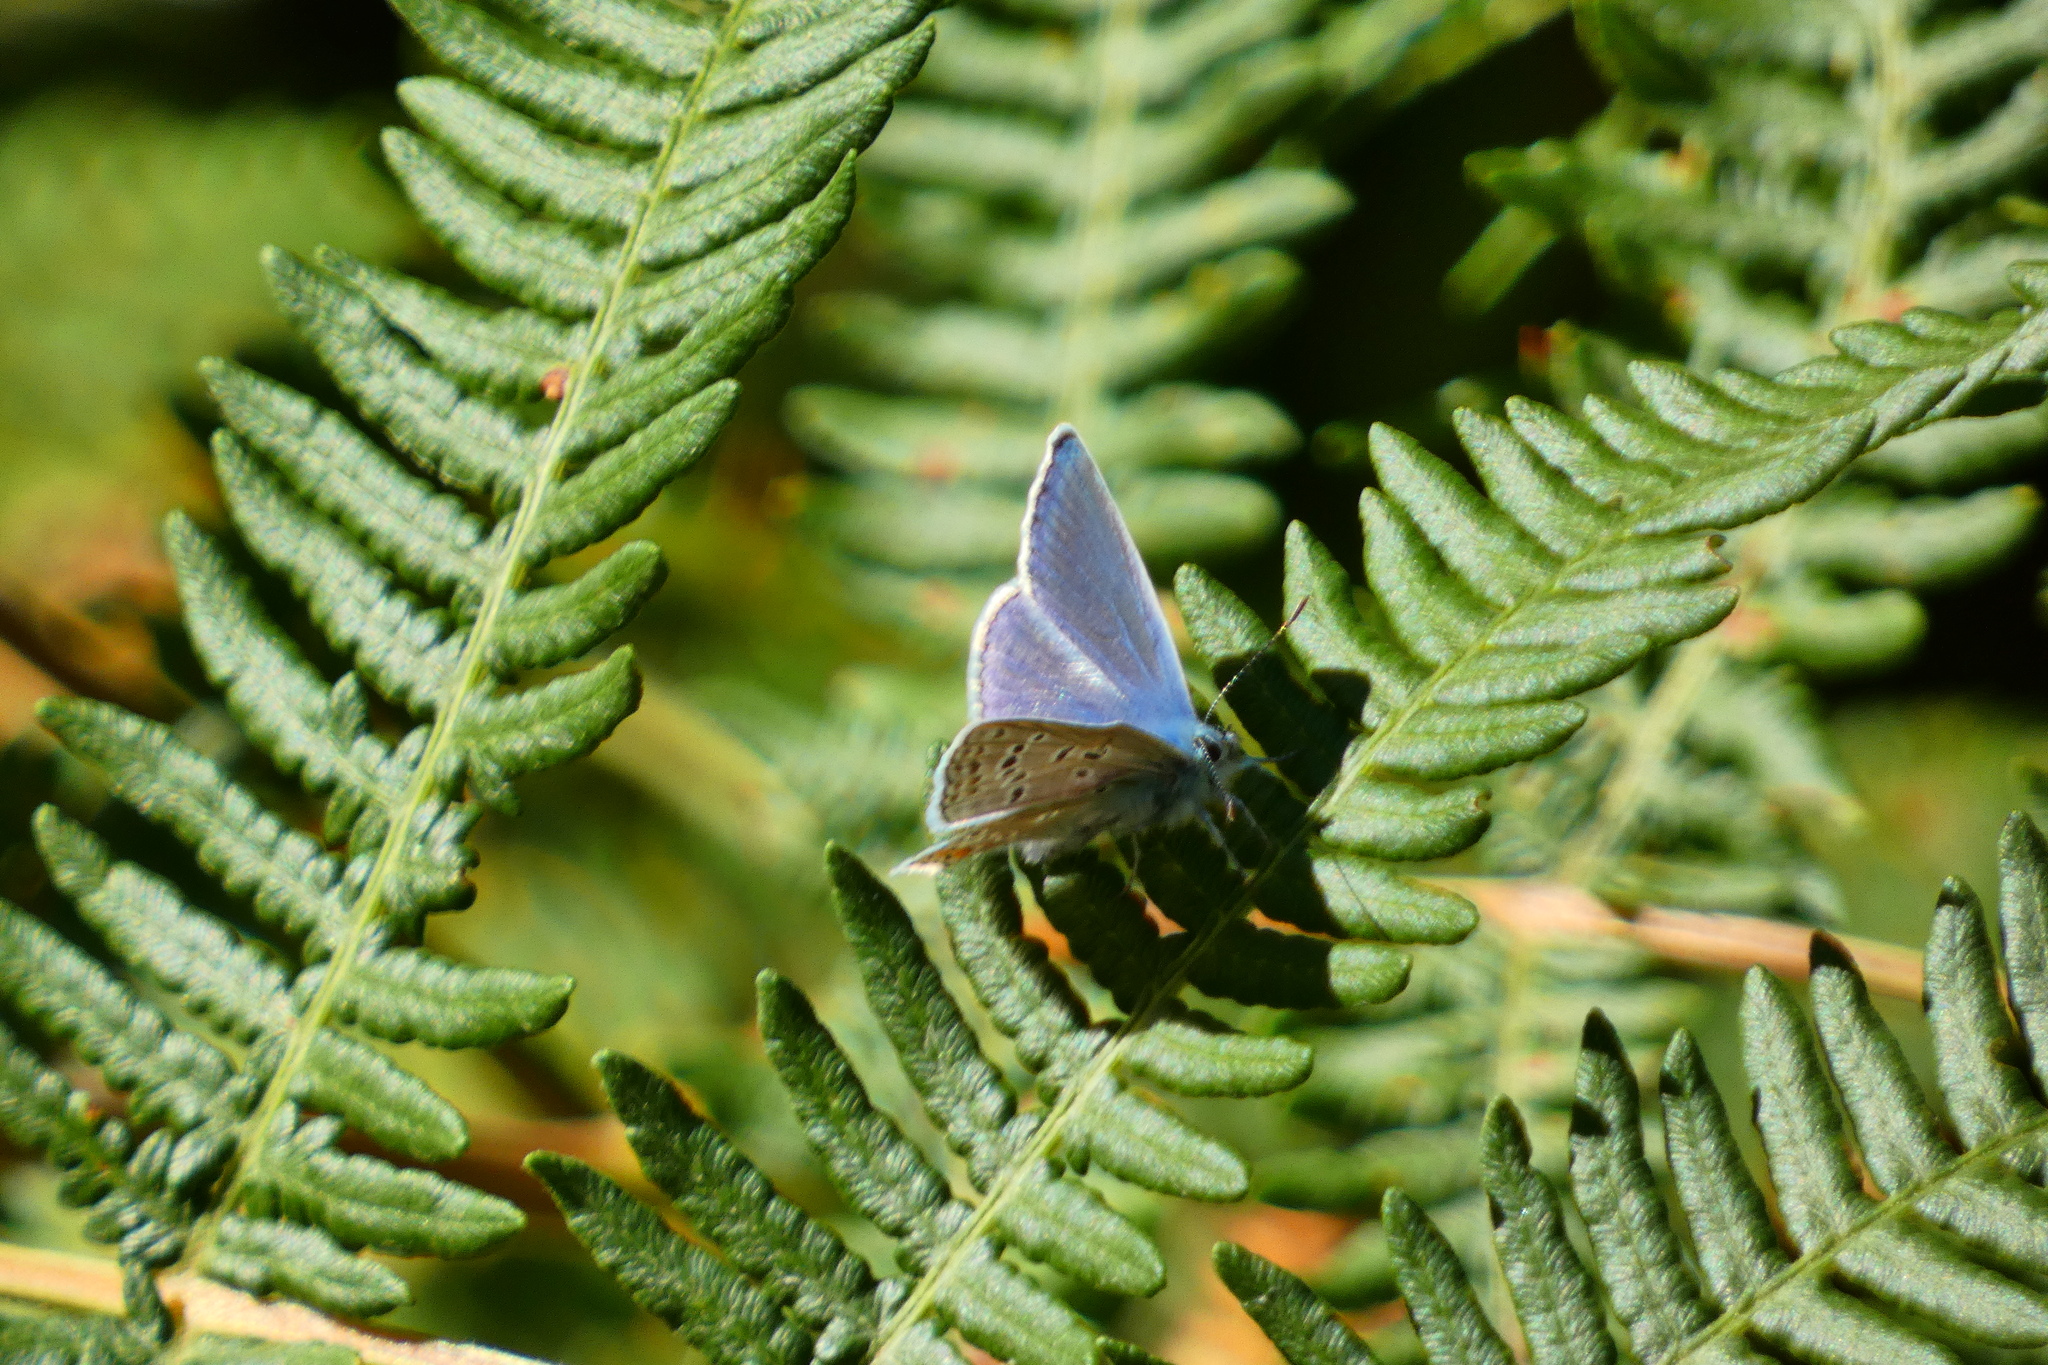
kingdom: Animalia
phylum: Arthropoda
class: Insecta
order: Lepidoptera
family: Lycaenidae
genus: Polyommatus
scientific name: Polyommatus icarus
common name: Common blue
